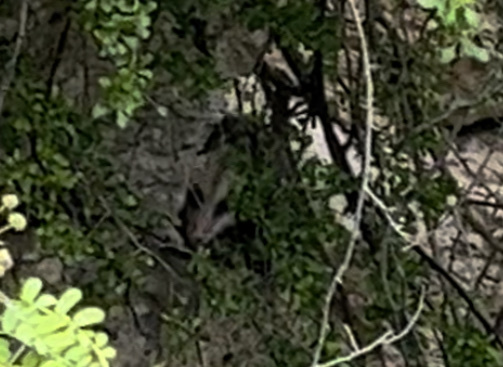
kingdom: Animalia
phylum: Chordata
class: Mammalia
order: Didelphimorphia
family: Didelphidae
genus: Didelphis
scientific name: Didelphis virginiana
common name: Virginia opossum
